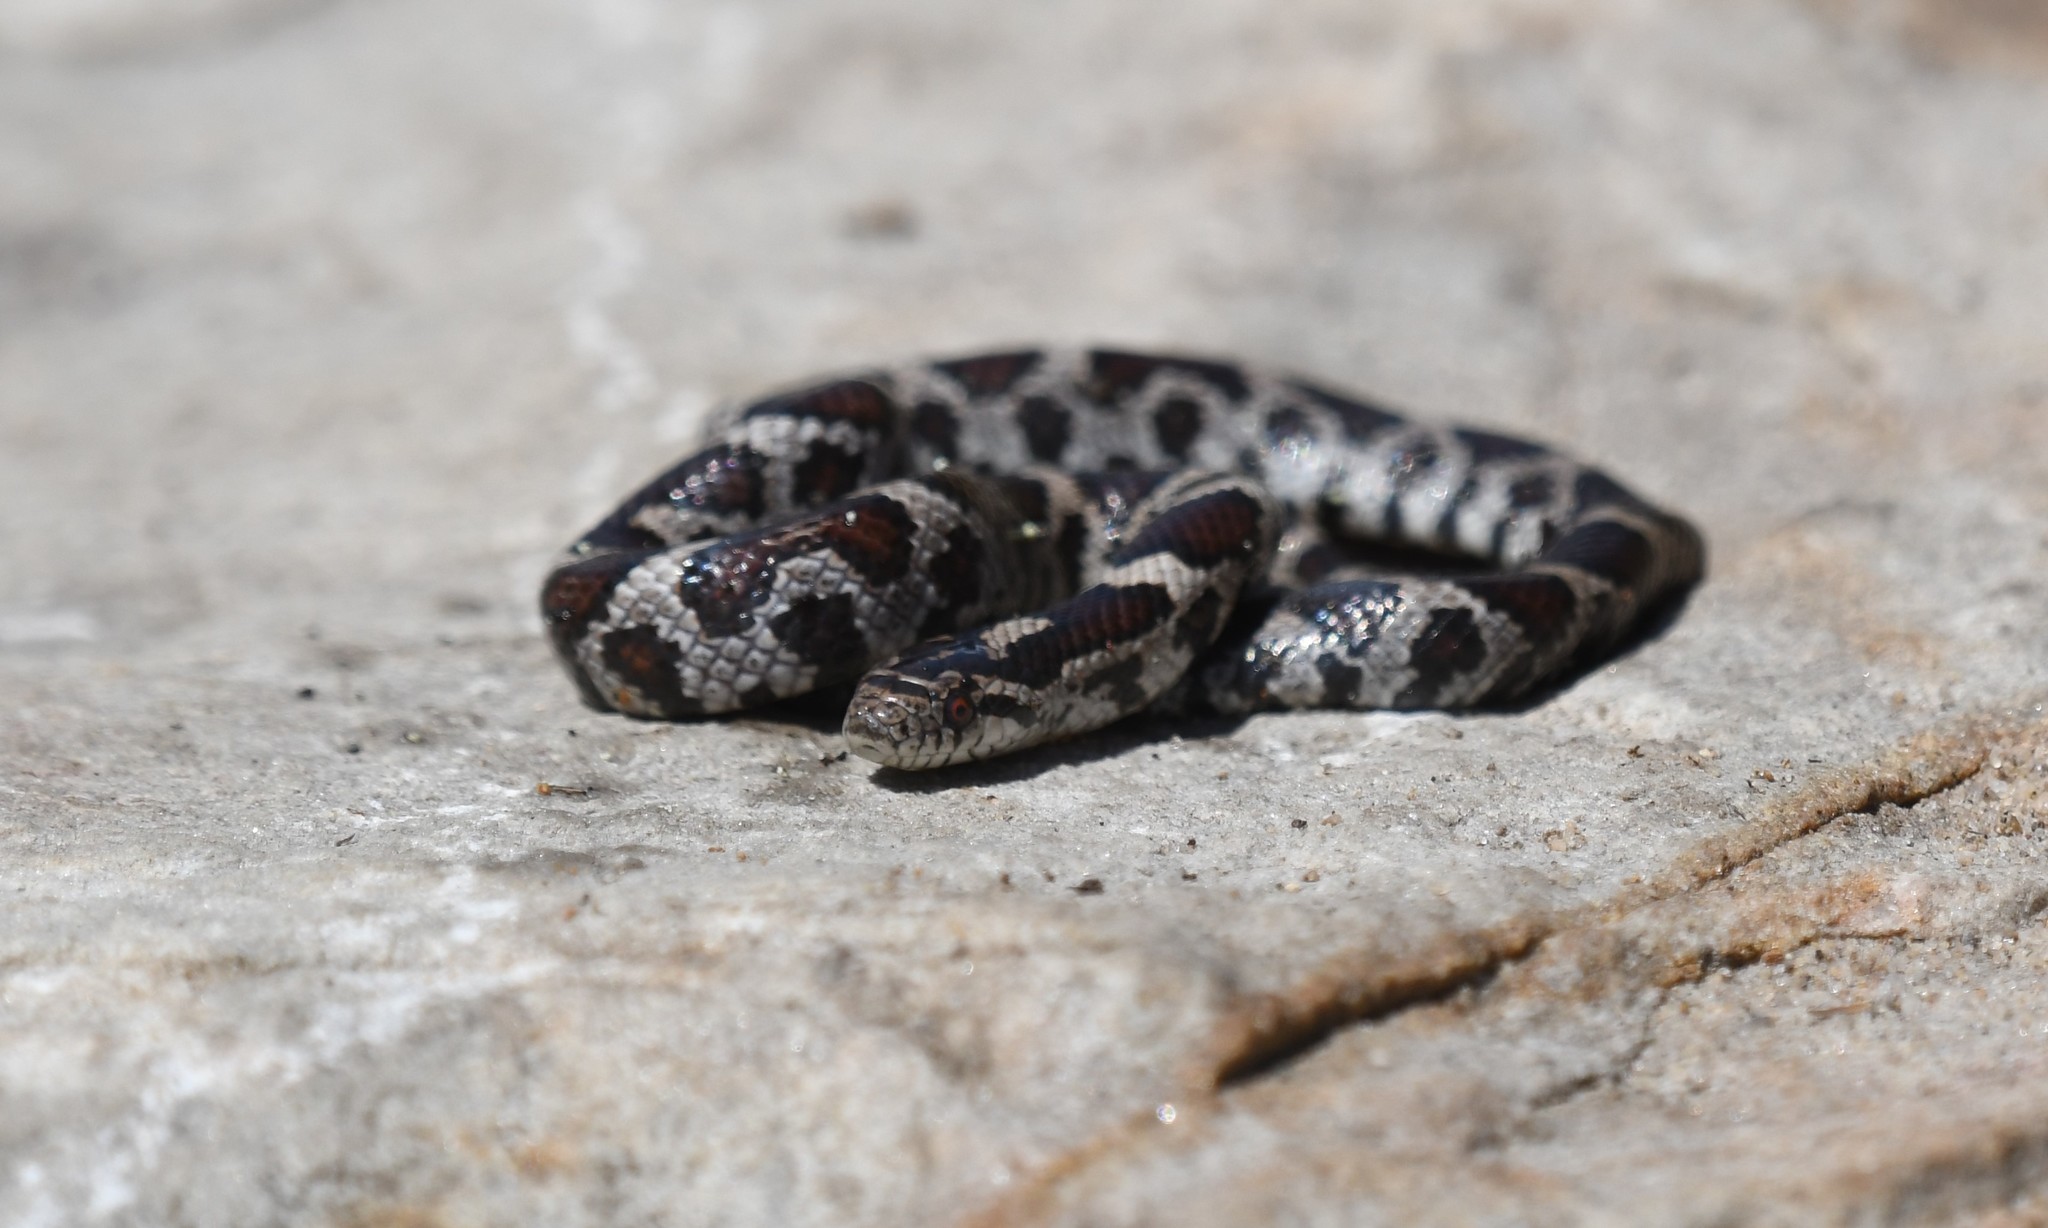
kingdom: Animalia
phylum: Chordata
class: Squamata
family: Colubridae
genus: Lampropeltis
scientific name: Lampropeltis triangulum
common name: Eastern milksnake
